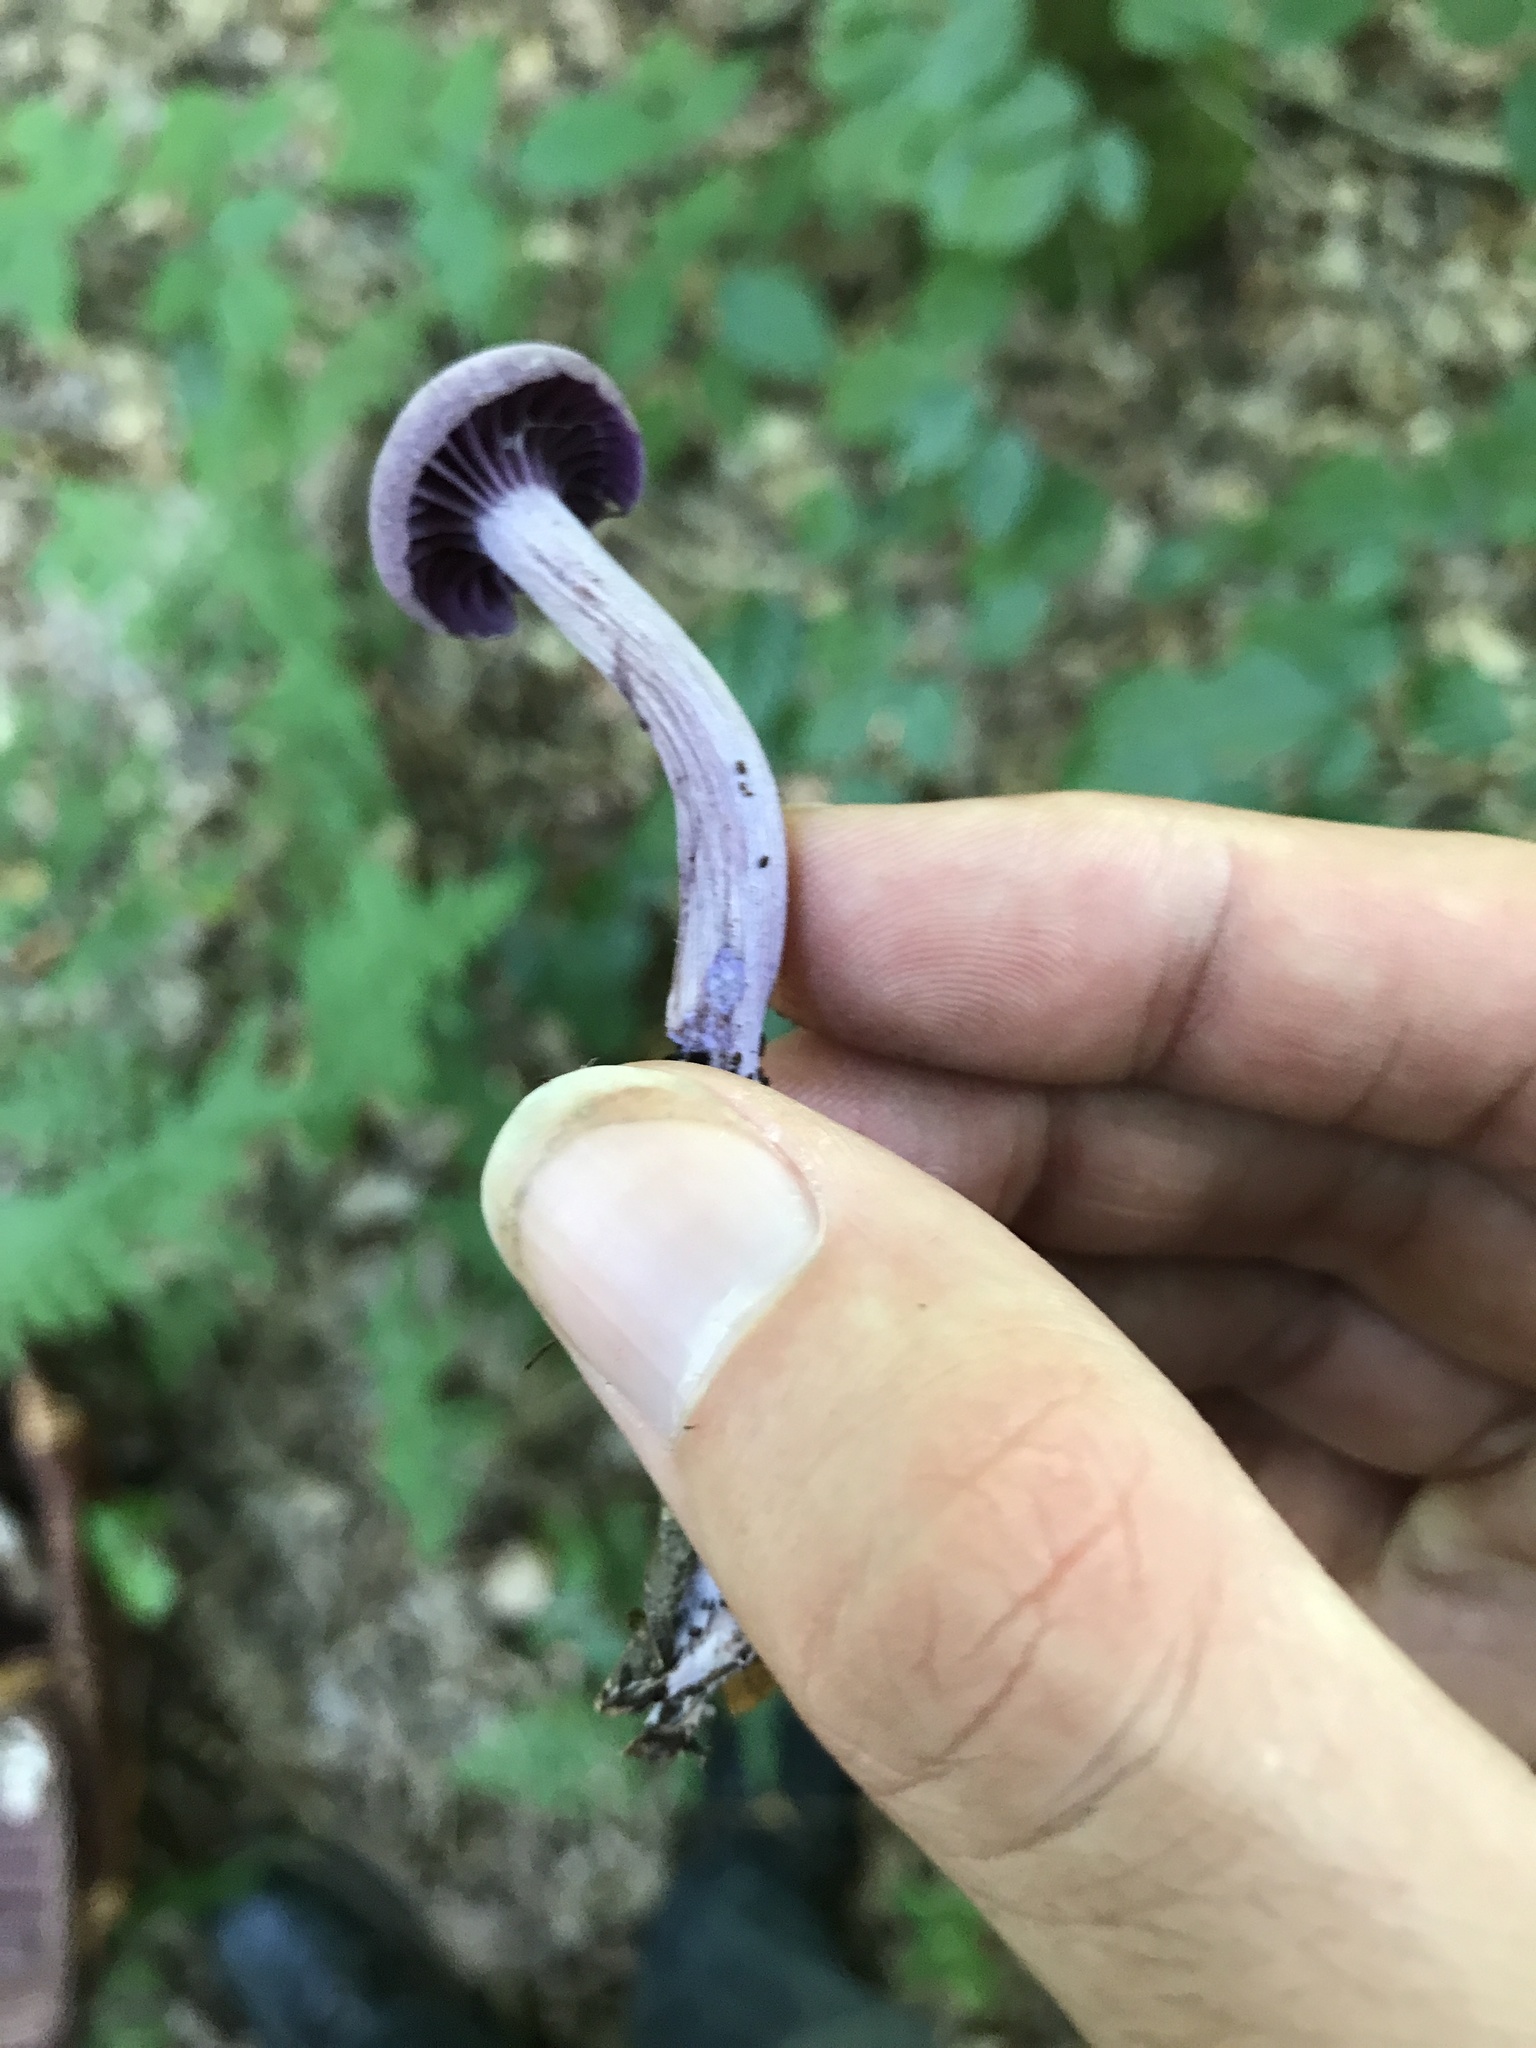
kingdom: Fungi
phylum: Basidiomycota
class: Agaricomycetes
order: Agaricales
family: Hydnangiaceae
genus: Laccaria
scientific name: Laccaria amethystina
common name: Amethyst deceiver
